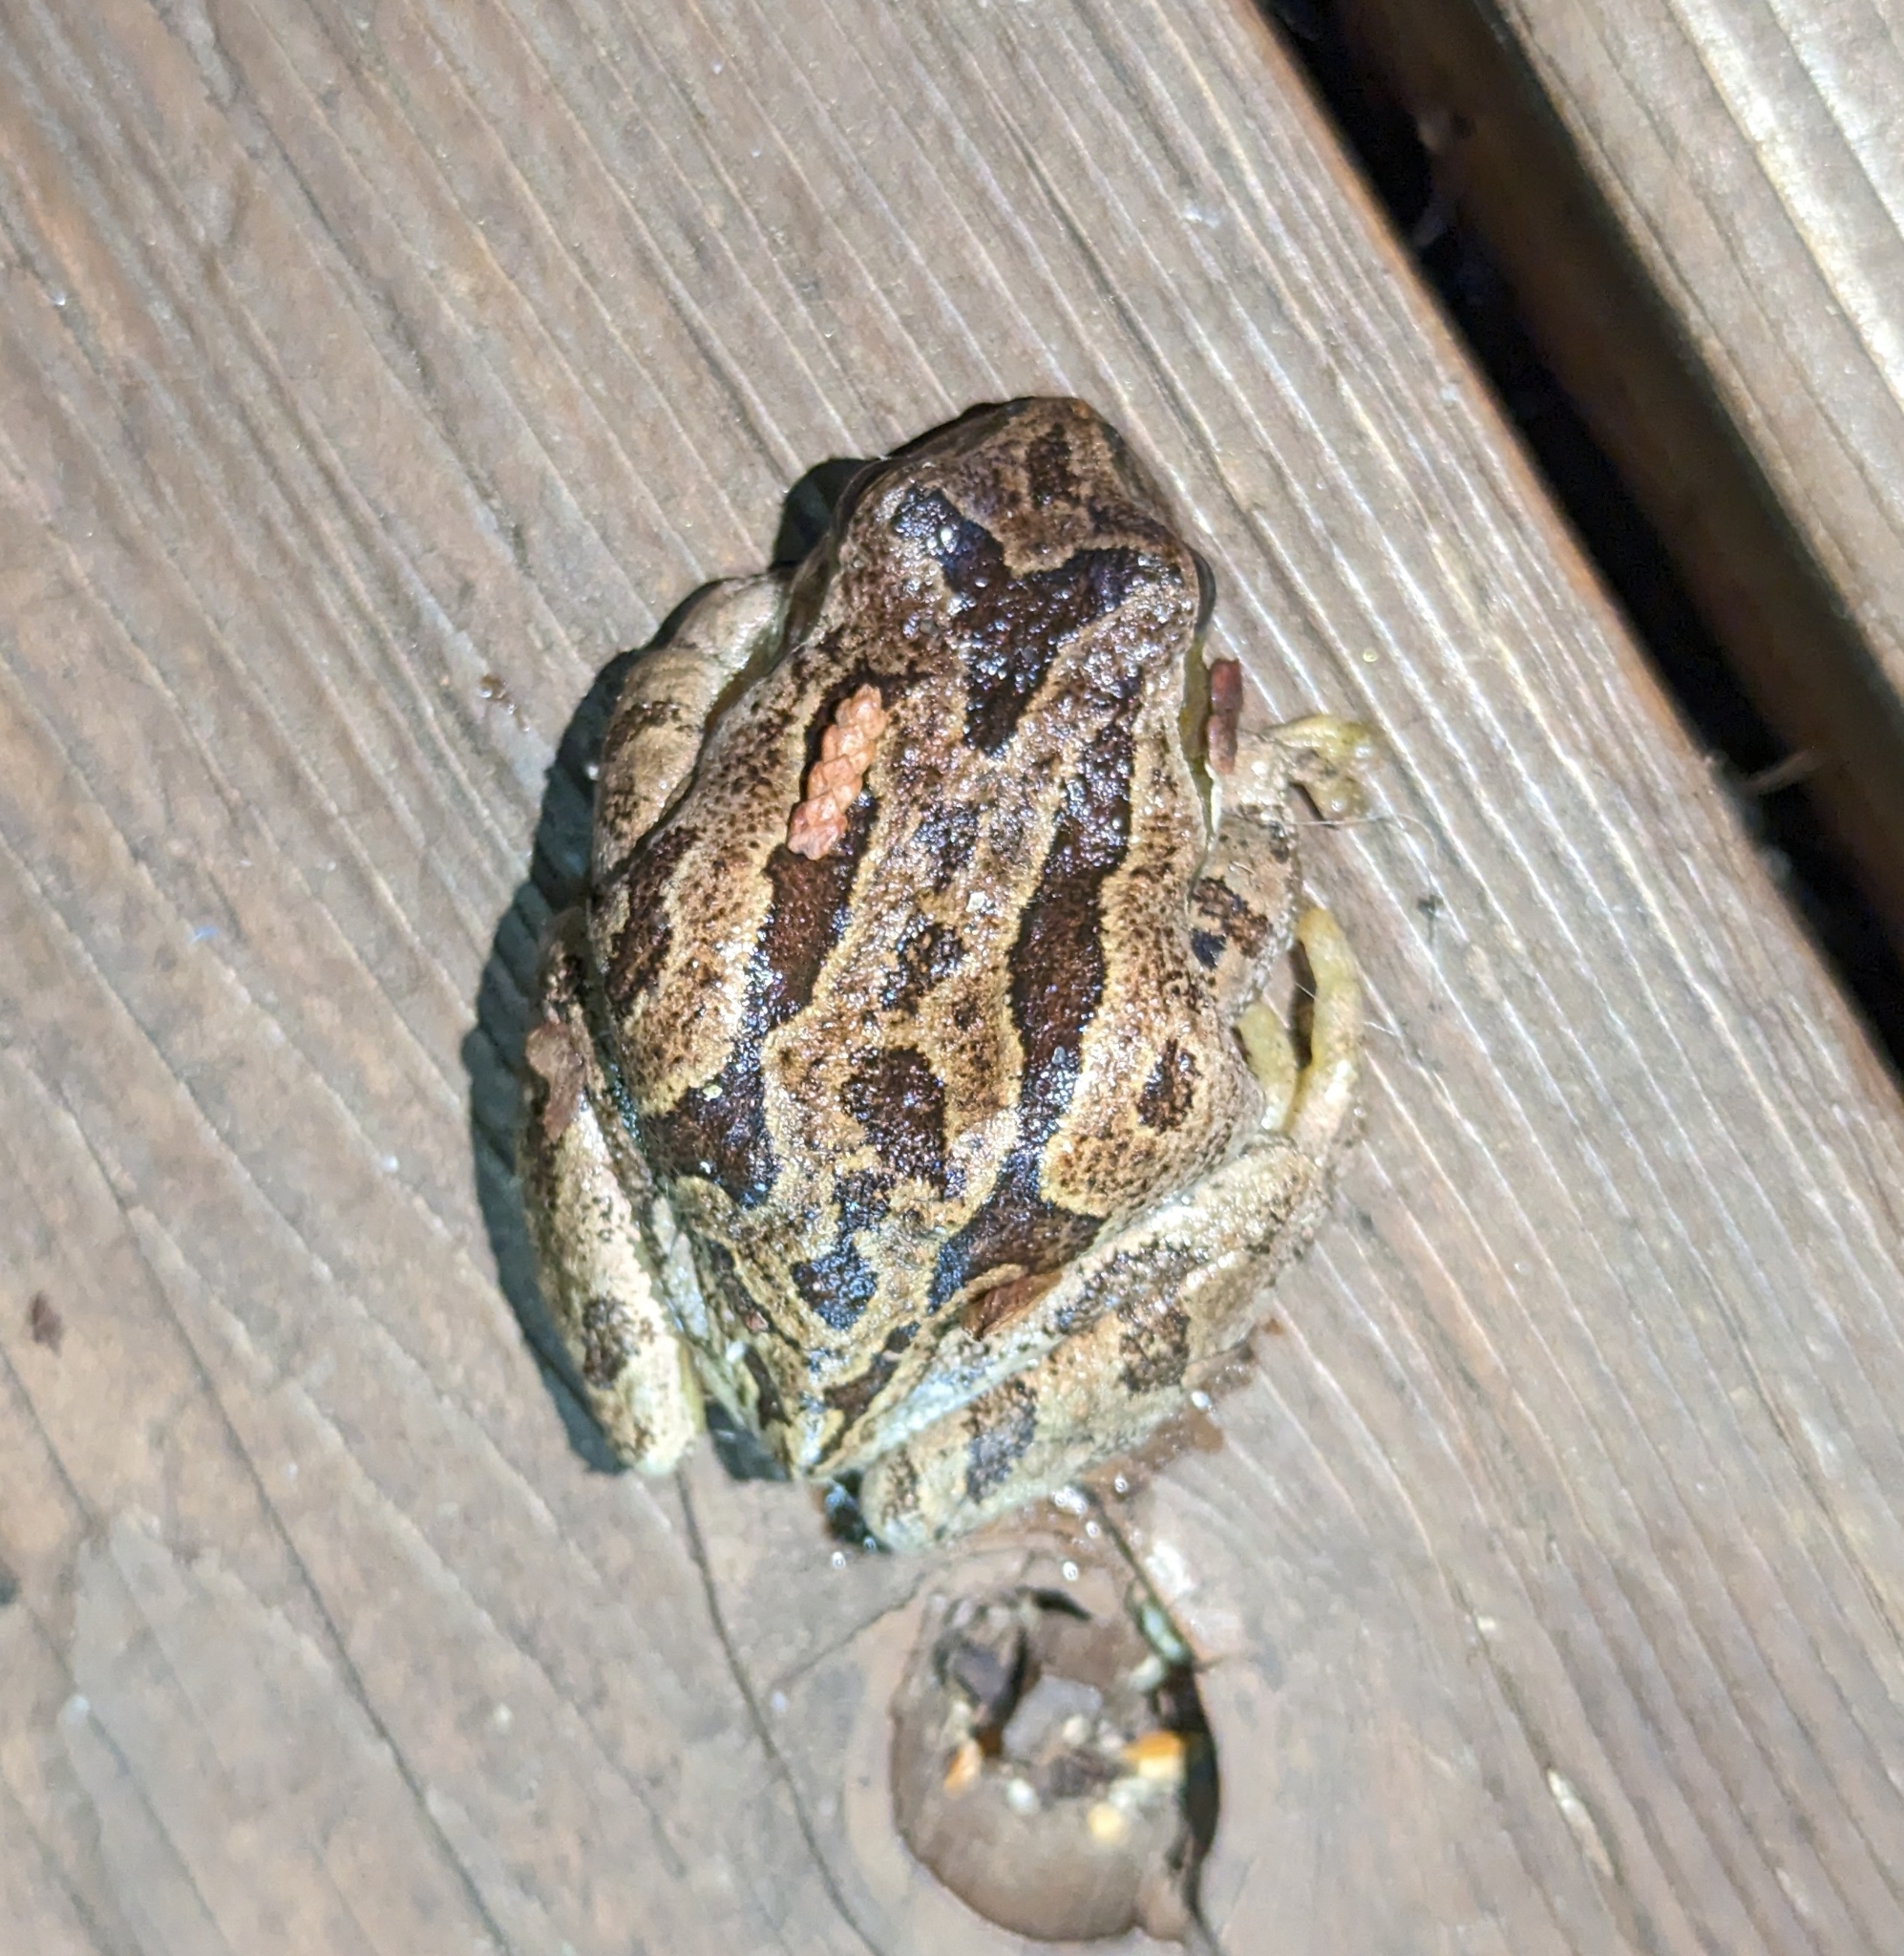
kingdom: Animalia
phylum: Chordata
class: Amphibia
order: Anura
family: Hylidae
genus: Pseudacris
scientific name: Pseudacris regilla
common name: Pacific chorus frog
